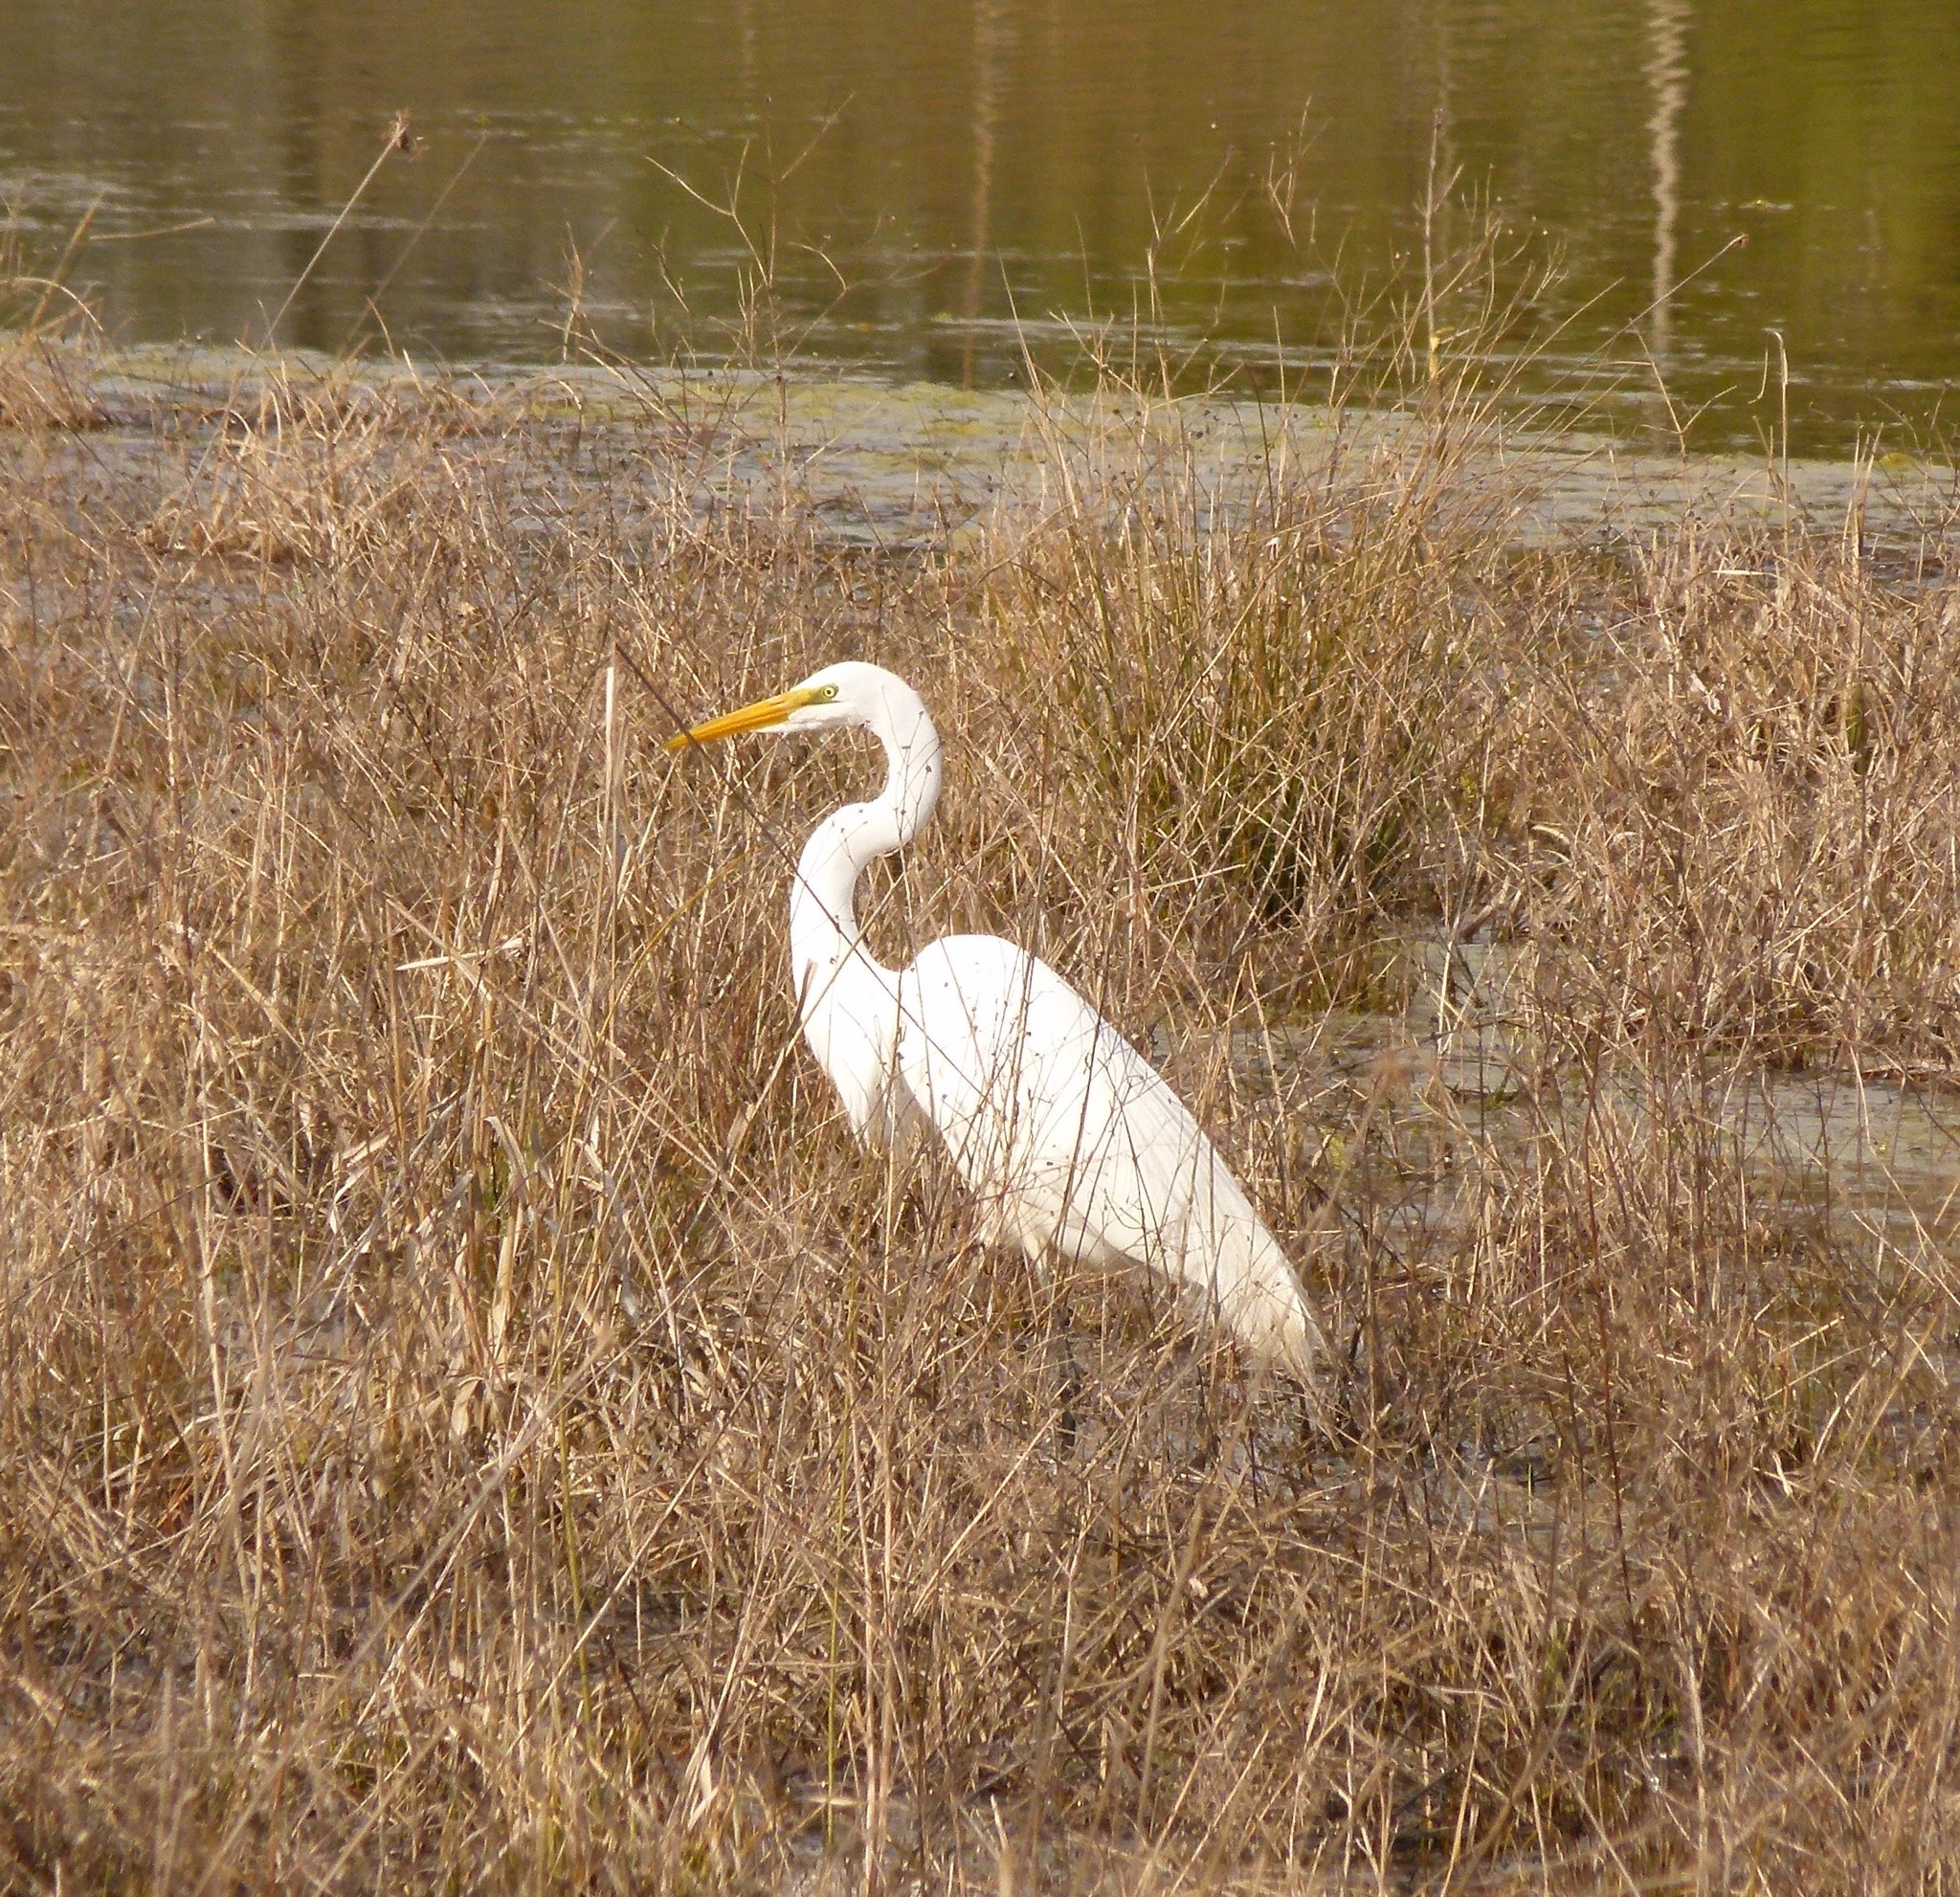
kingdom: Animalia
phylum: Chordata
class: Aves
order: Pelecaniformes
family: Ardeidae
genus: Ardea
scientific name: Ardea alba
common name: Great egret
